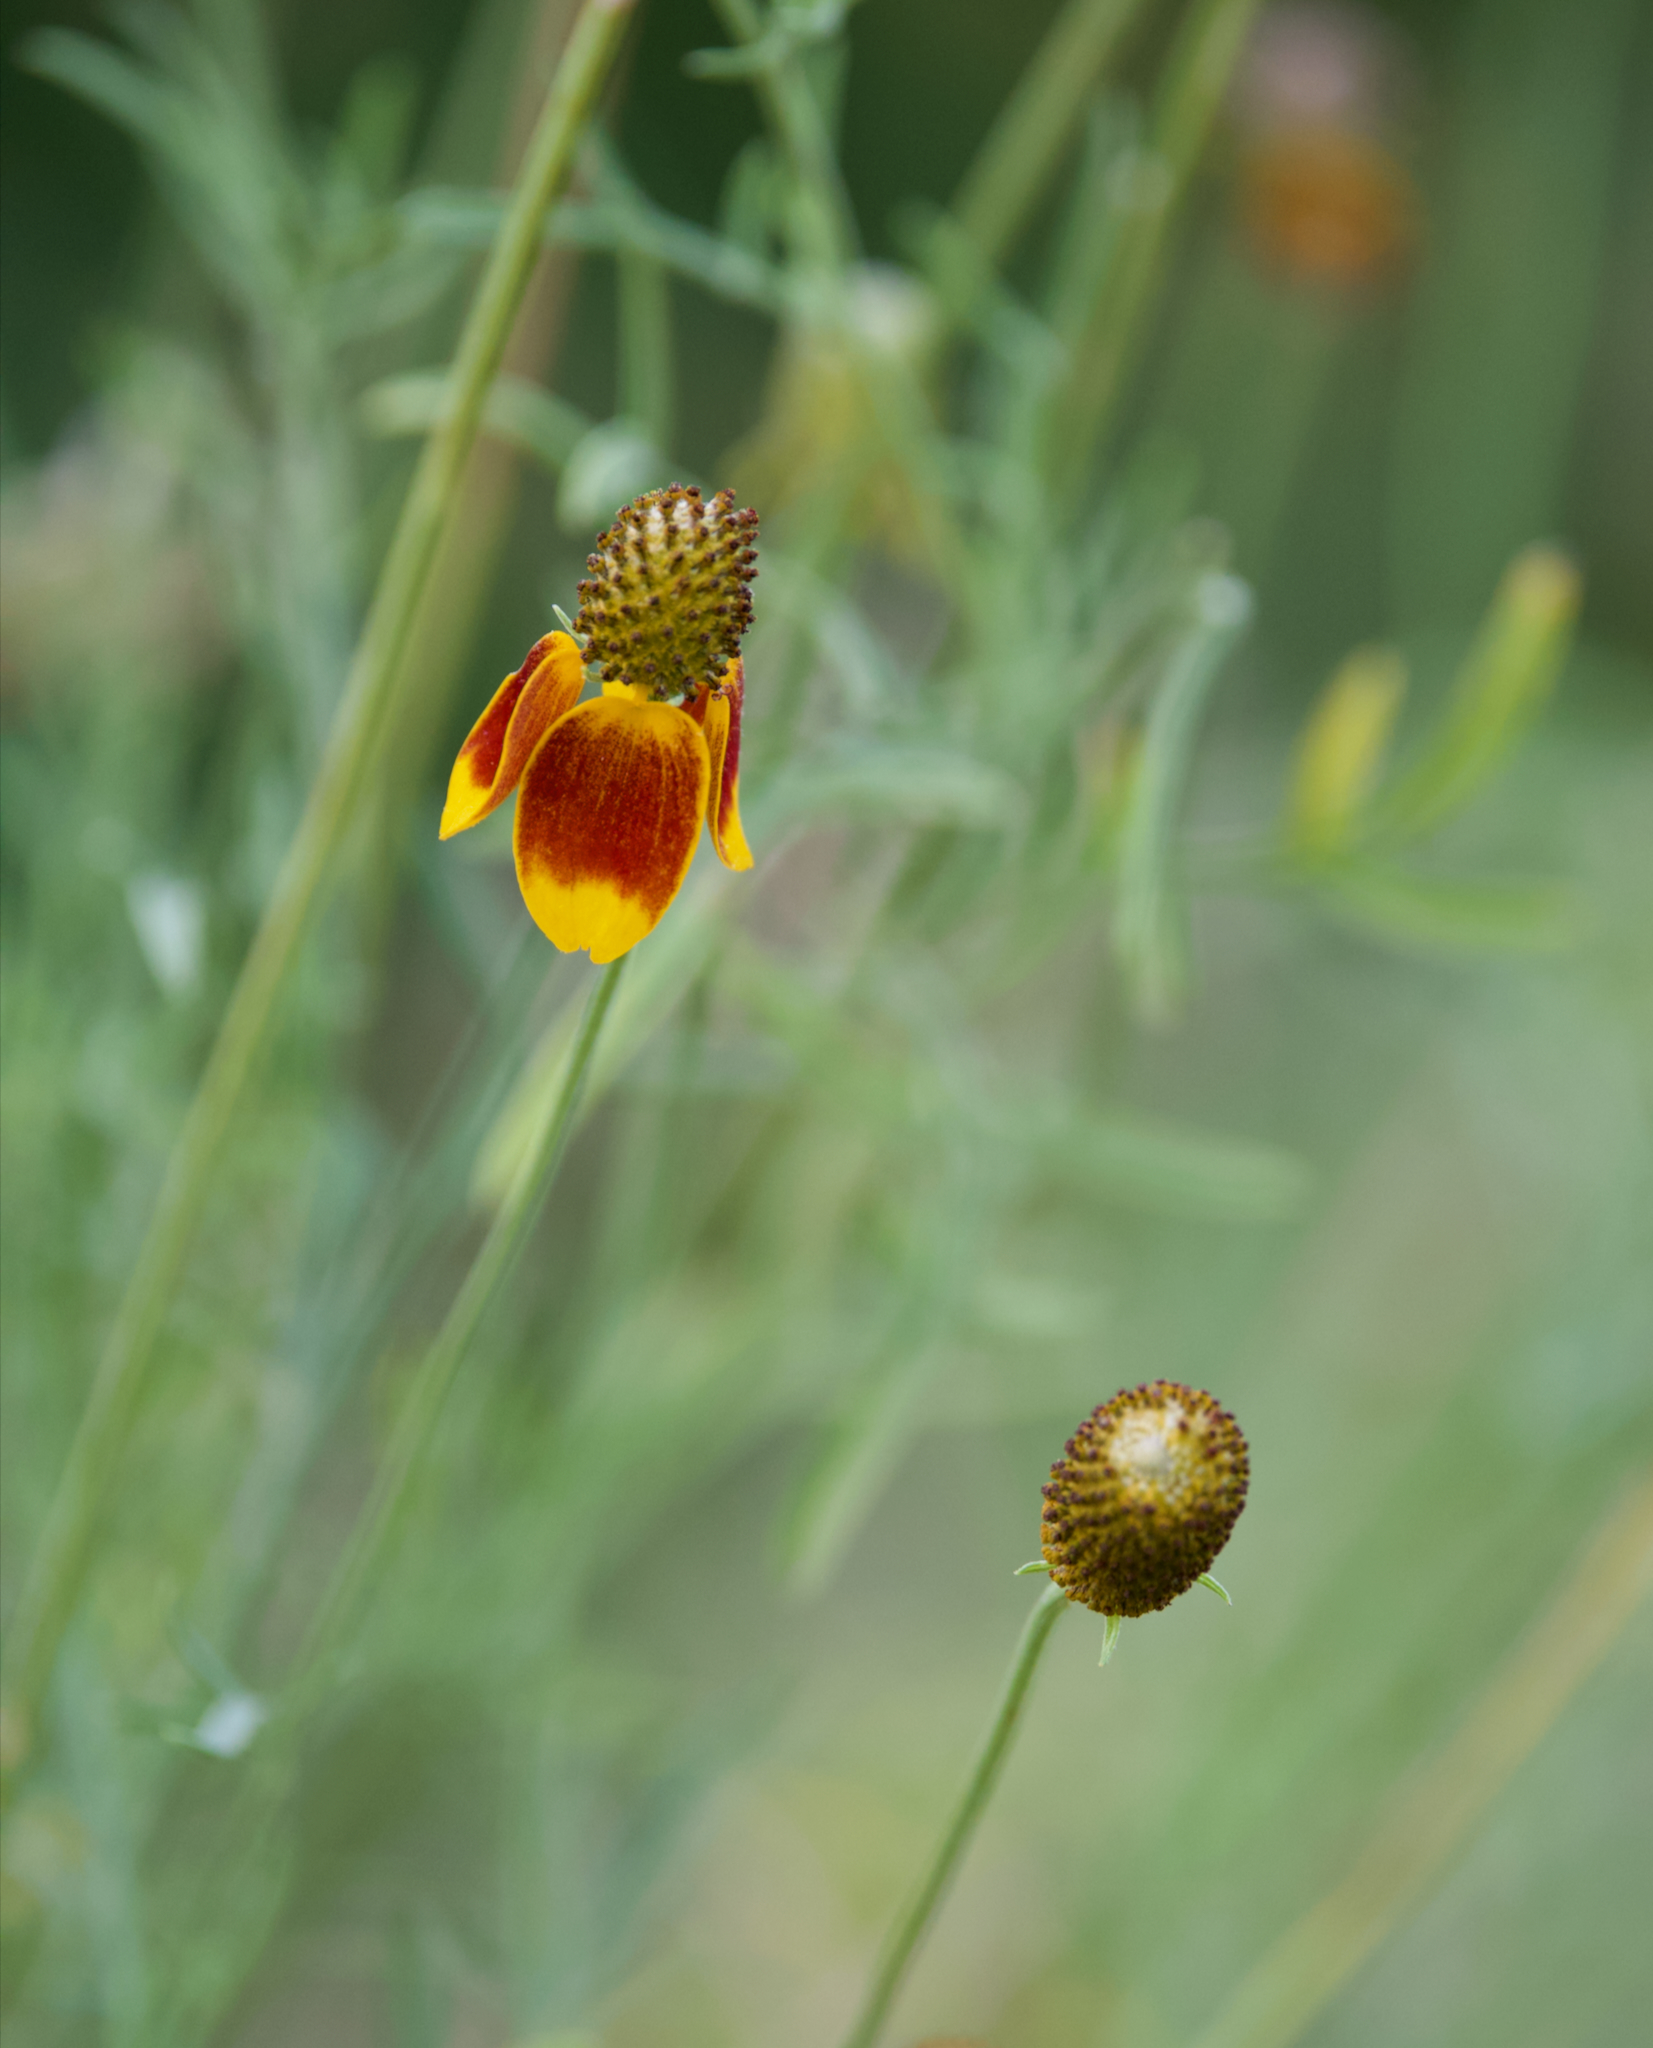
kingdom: Plantae
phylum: Tracheophyta
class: Magnoliopsida
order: Asterales
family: Asteraceae
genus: Ratibida
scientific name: Ratibida columnifera
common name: Prairie coneflower
